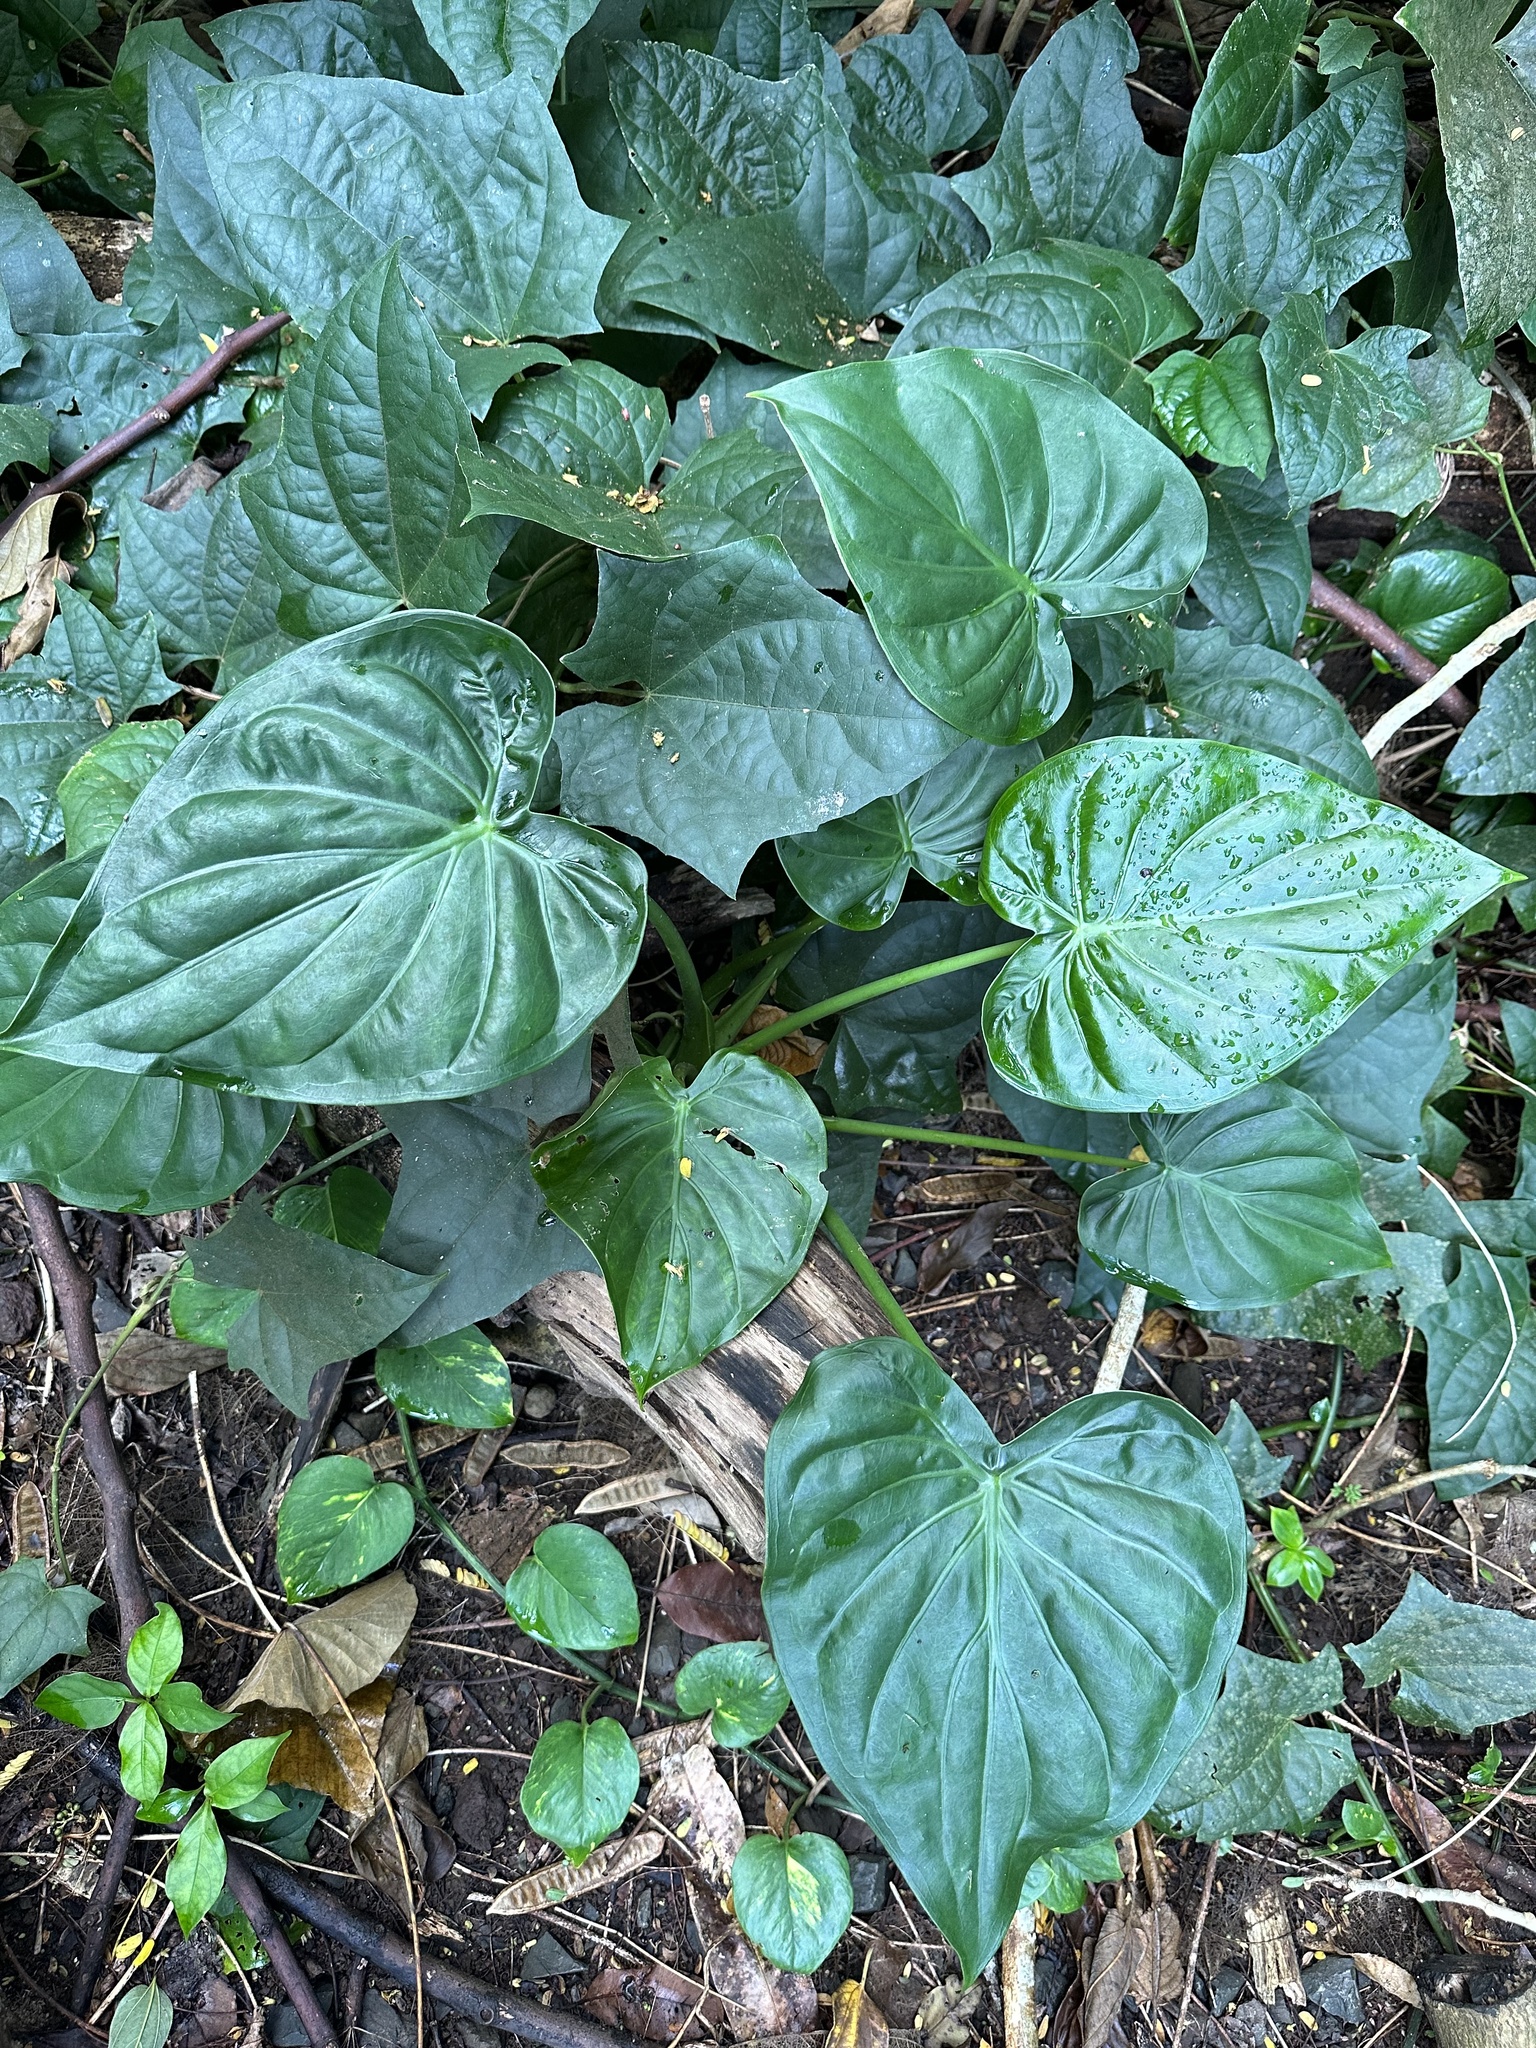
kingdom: Plantae
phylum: Tracheophyta
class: Liliopsida
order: Alismatales
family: Araceae
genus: Alocasia
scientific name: Alocasia cucullata
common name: Buddha's hand
